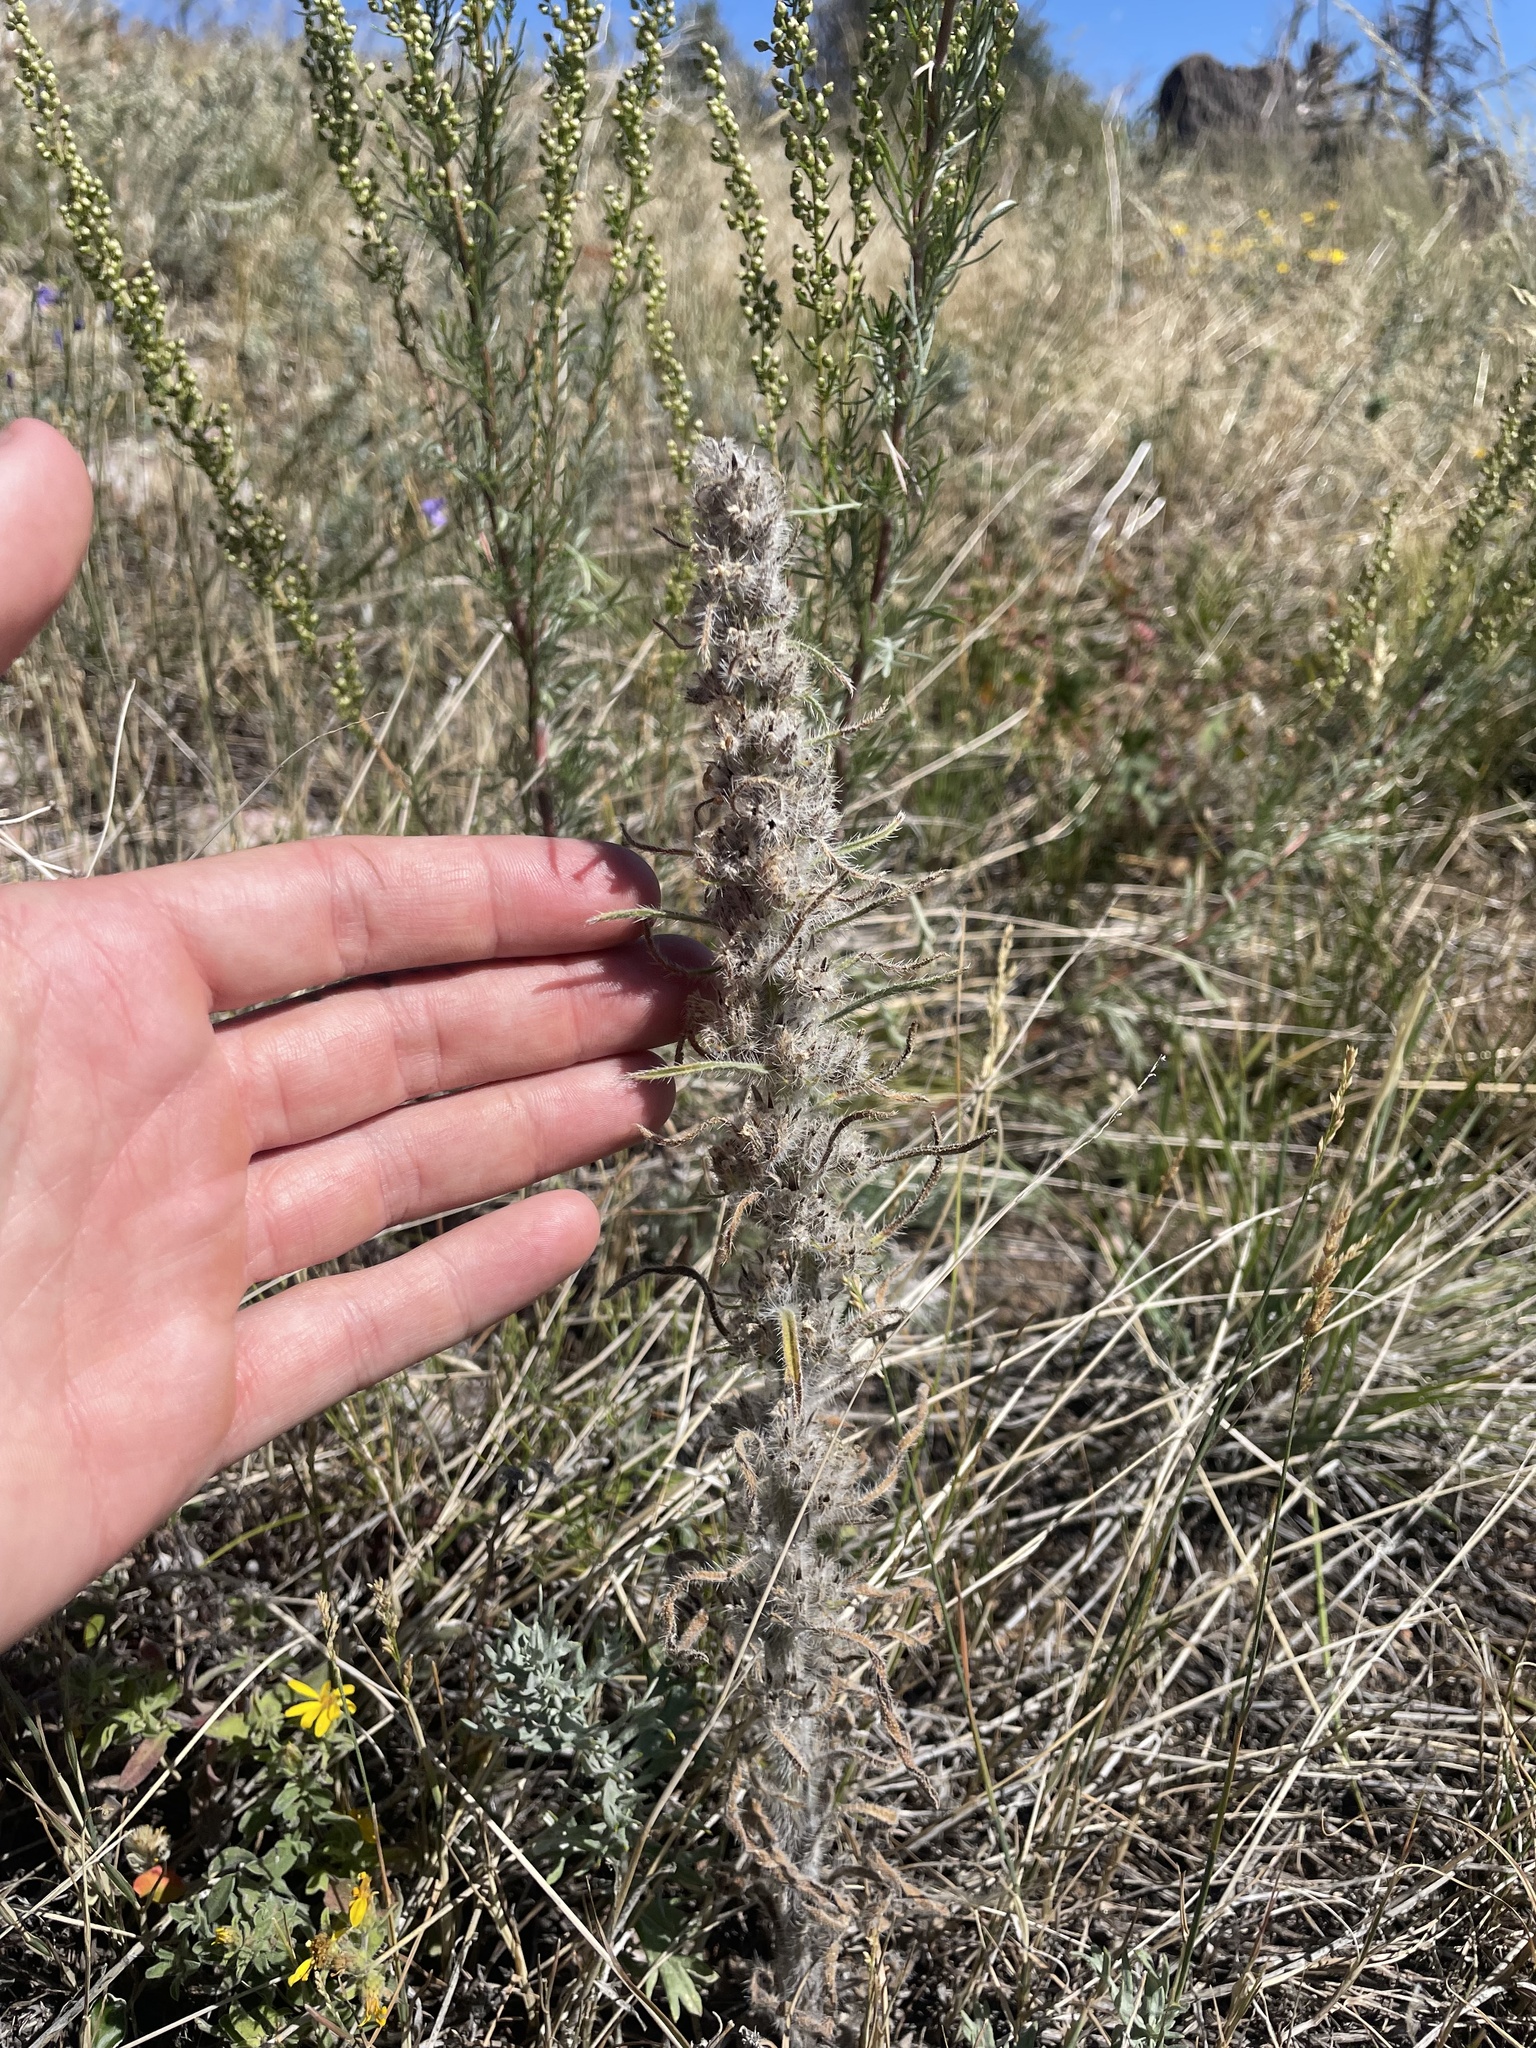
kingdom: Plantae
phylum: Tracheophyta
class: Magnoliopsida
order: Boraginales
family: Boraginaceae
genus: Oreocarya
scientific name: Oreocarya virgata
